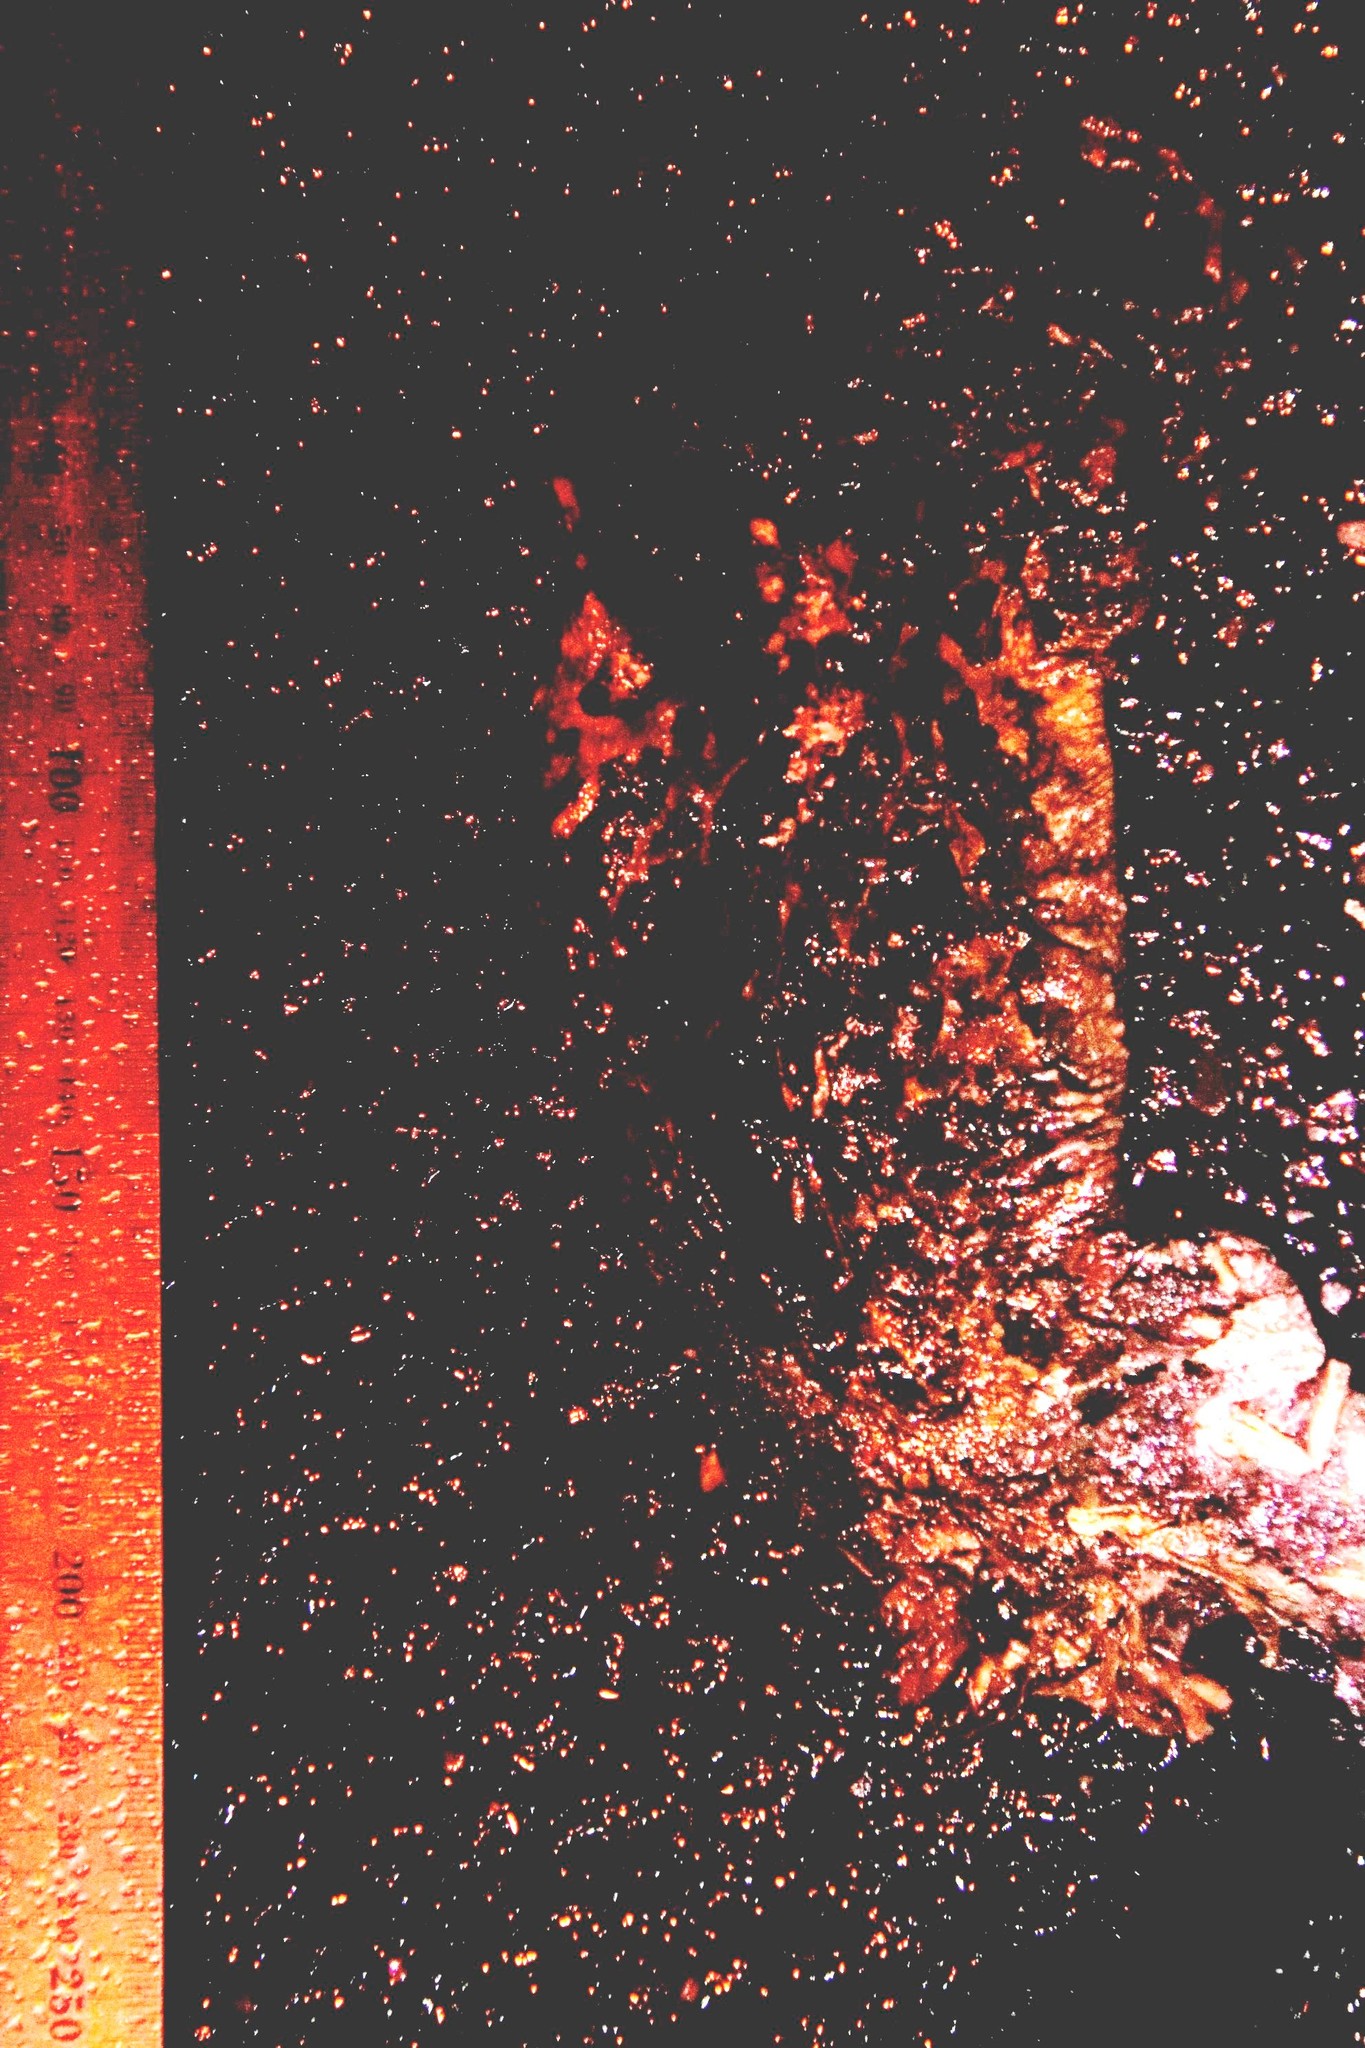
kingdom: Animalia
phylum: Chordata
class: Amphibia
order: Anura
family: Bufonidae
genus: Sclerophrys
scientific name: Sclerophrys pantherina
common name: Panther toad
